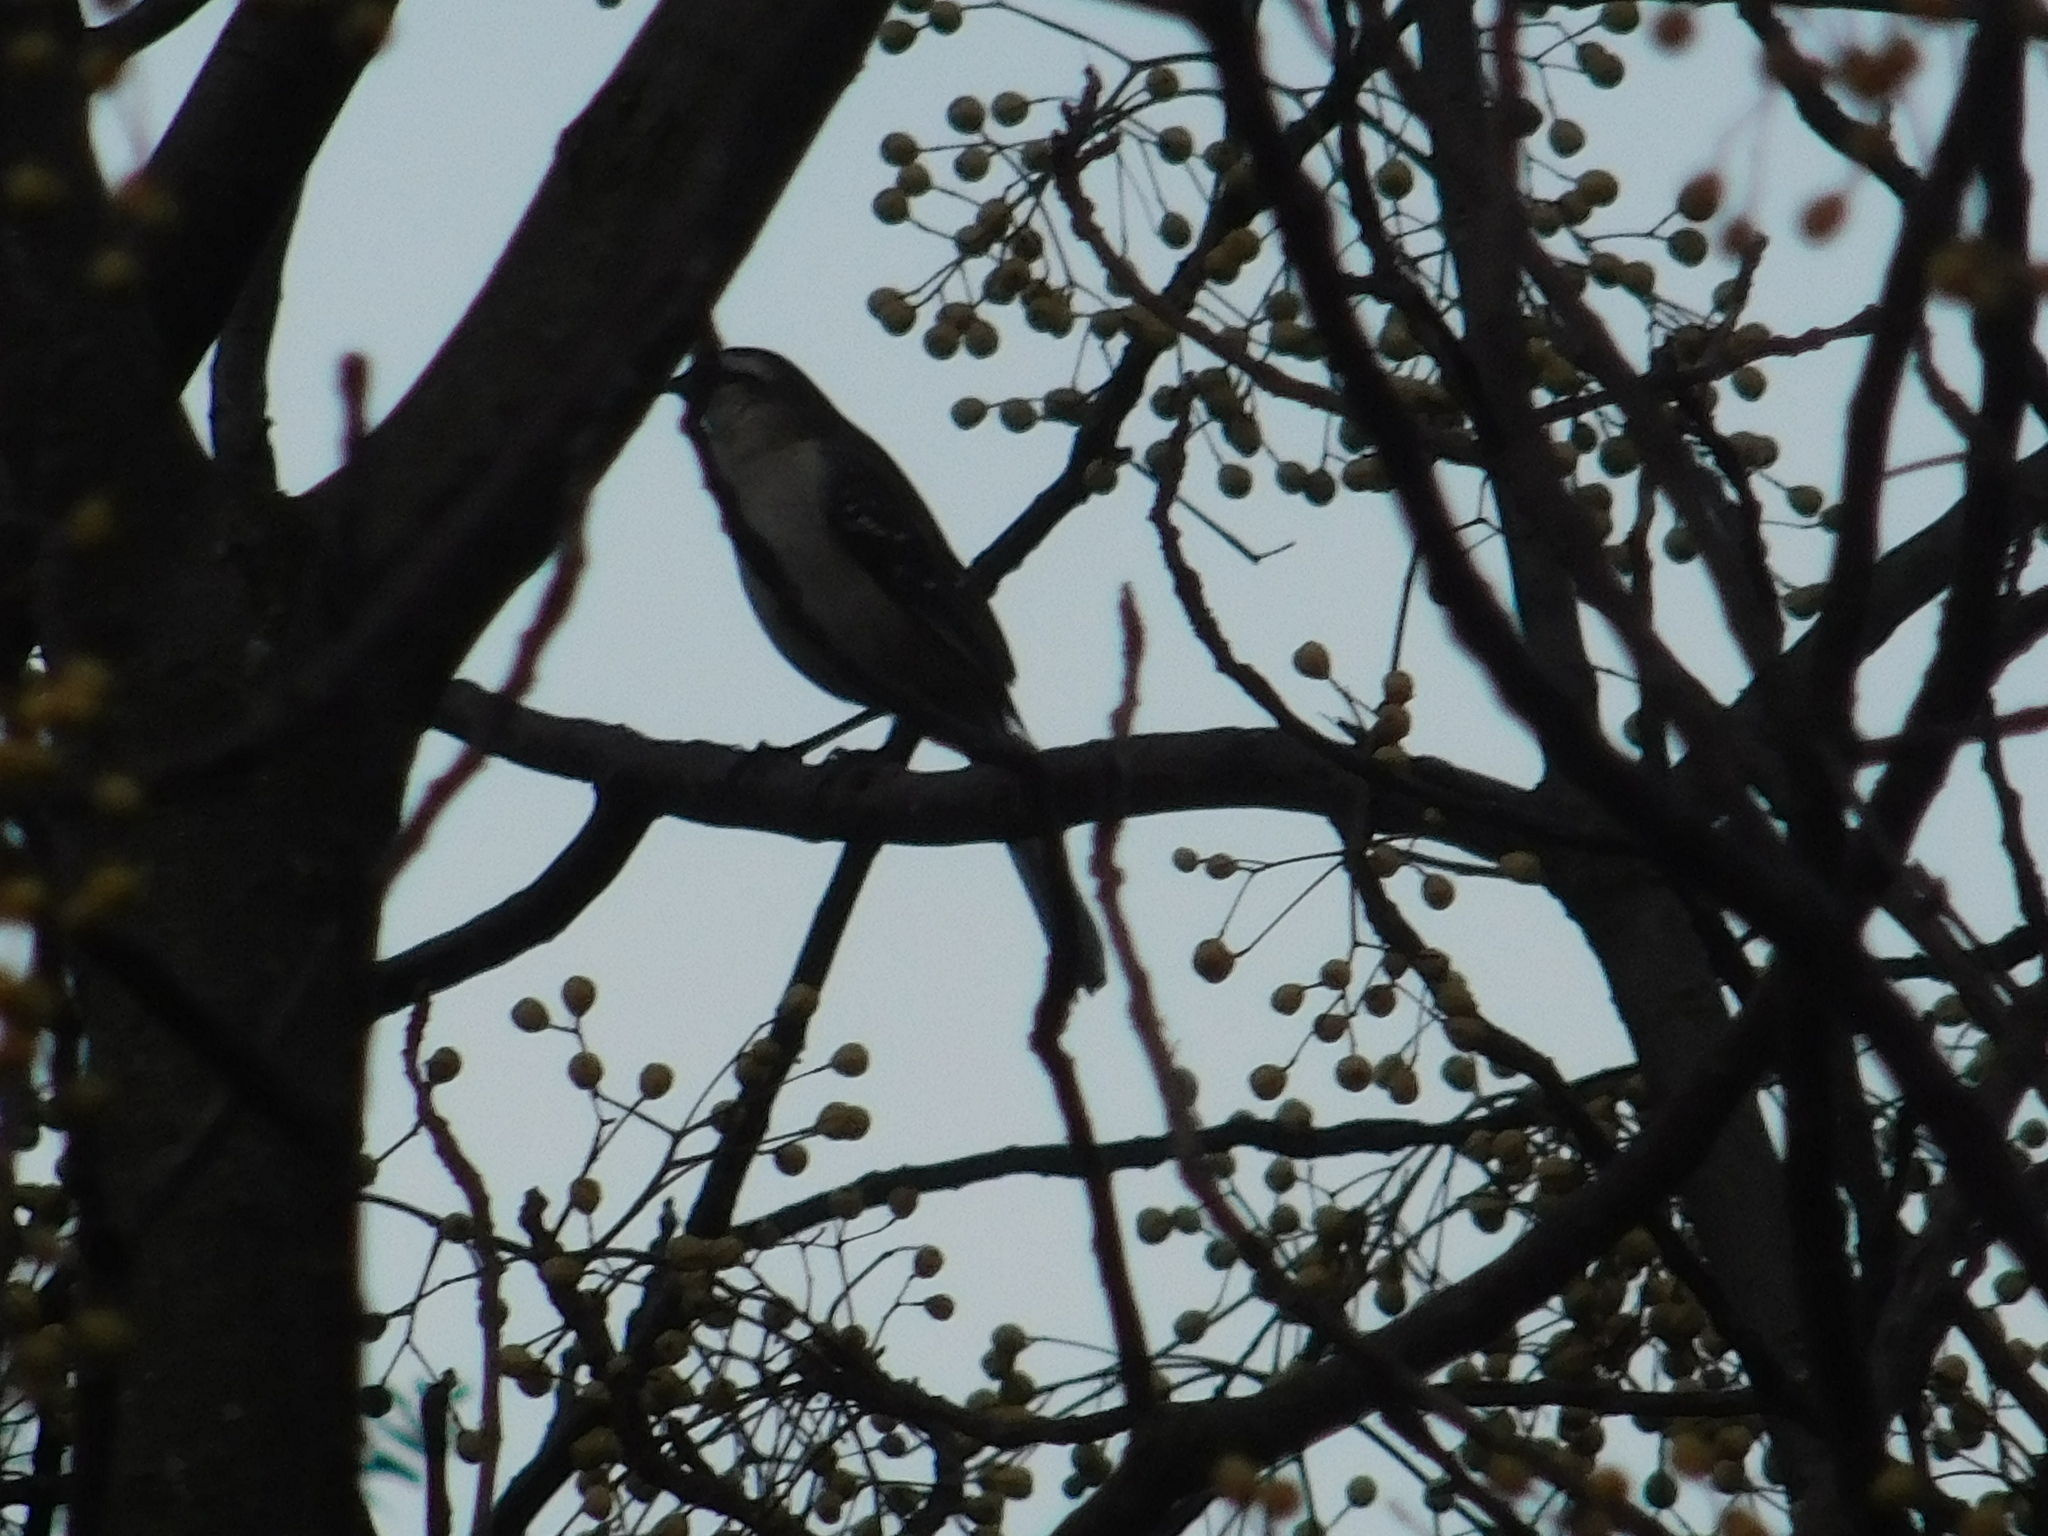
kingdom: Animalia
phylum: Chordata
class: Aves
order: Passeriformes
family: Mimidae
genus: Mimus
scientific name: Mimus saturninus
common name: Chalk-browed mockingbird
